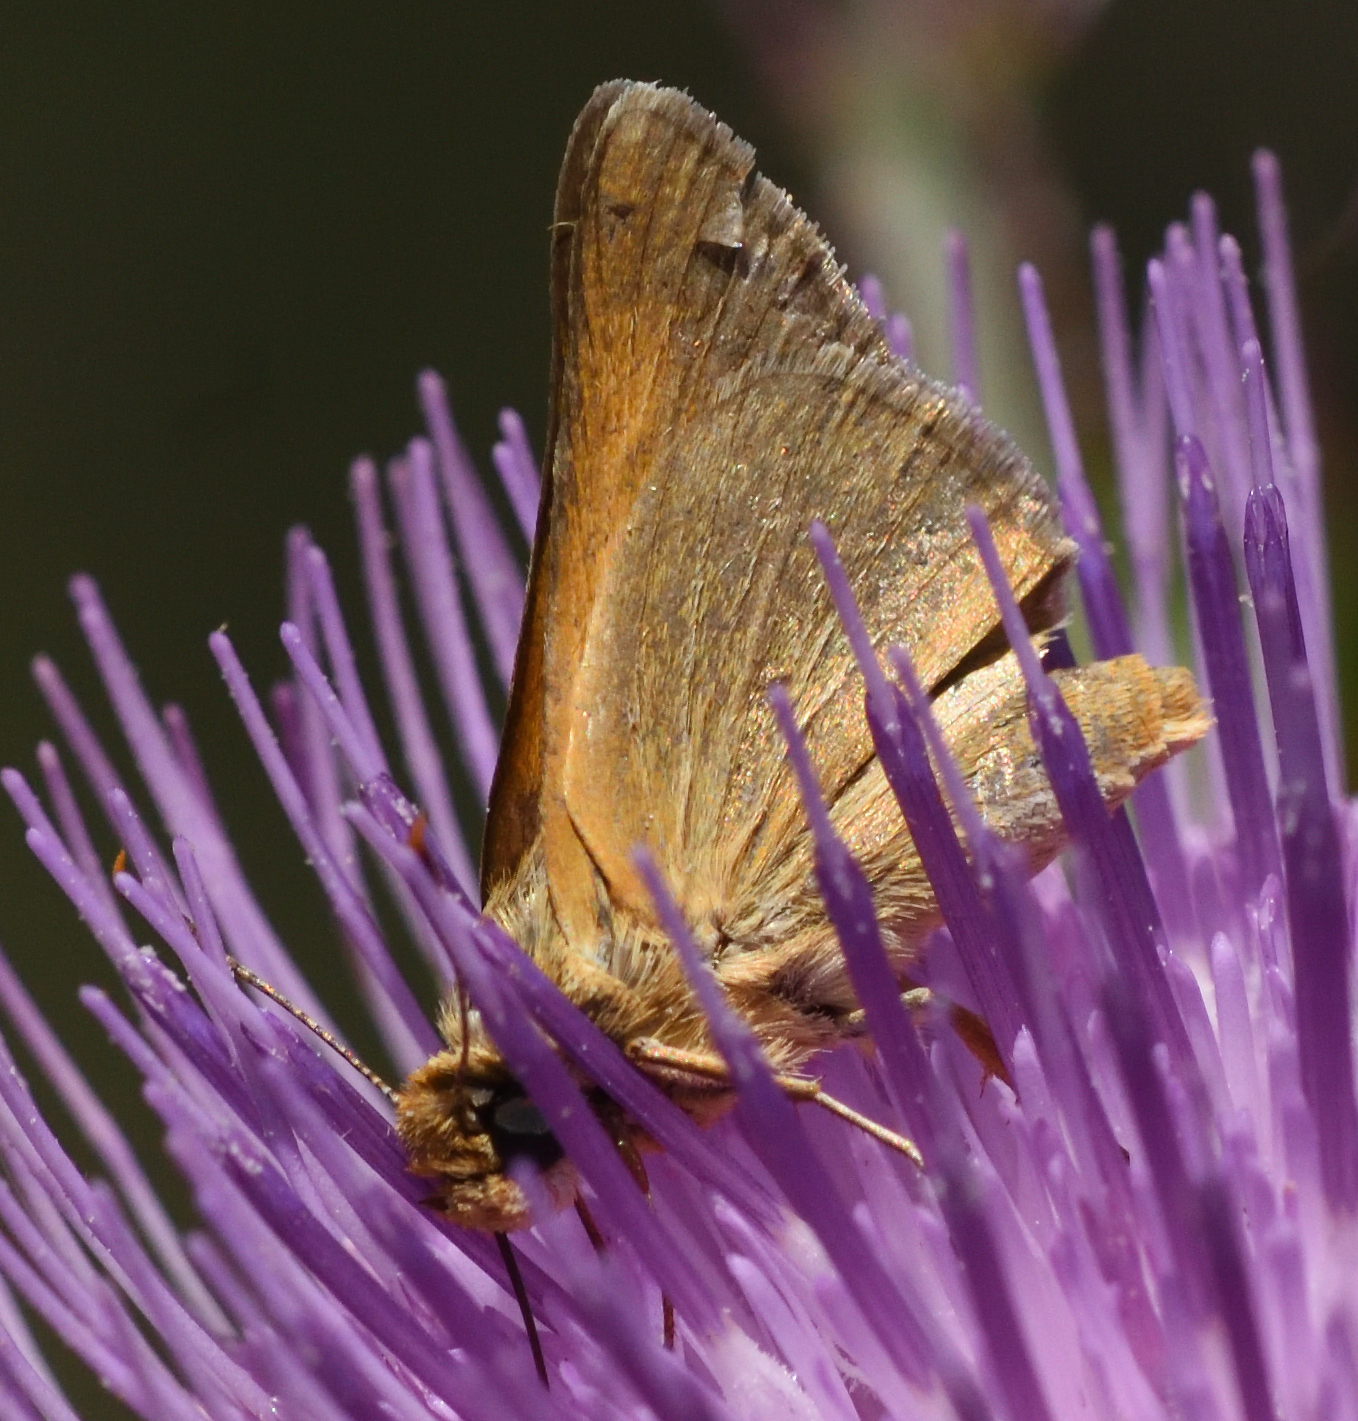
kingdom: Animalia
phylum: Arthropoda
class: Insecta
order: Lepidoptera
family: Hesperiidae
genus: Atrytone
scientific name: Atrytone arogos
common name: Arogos skipper
